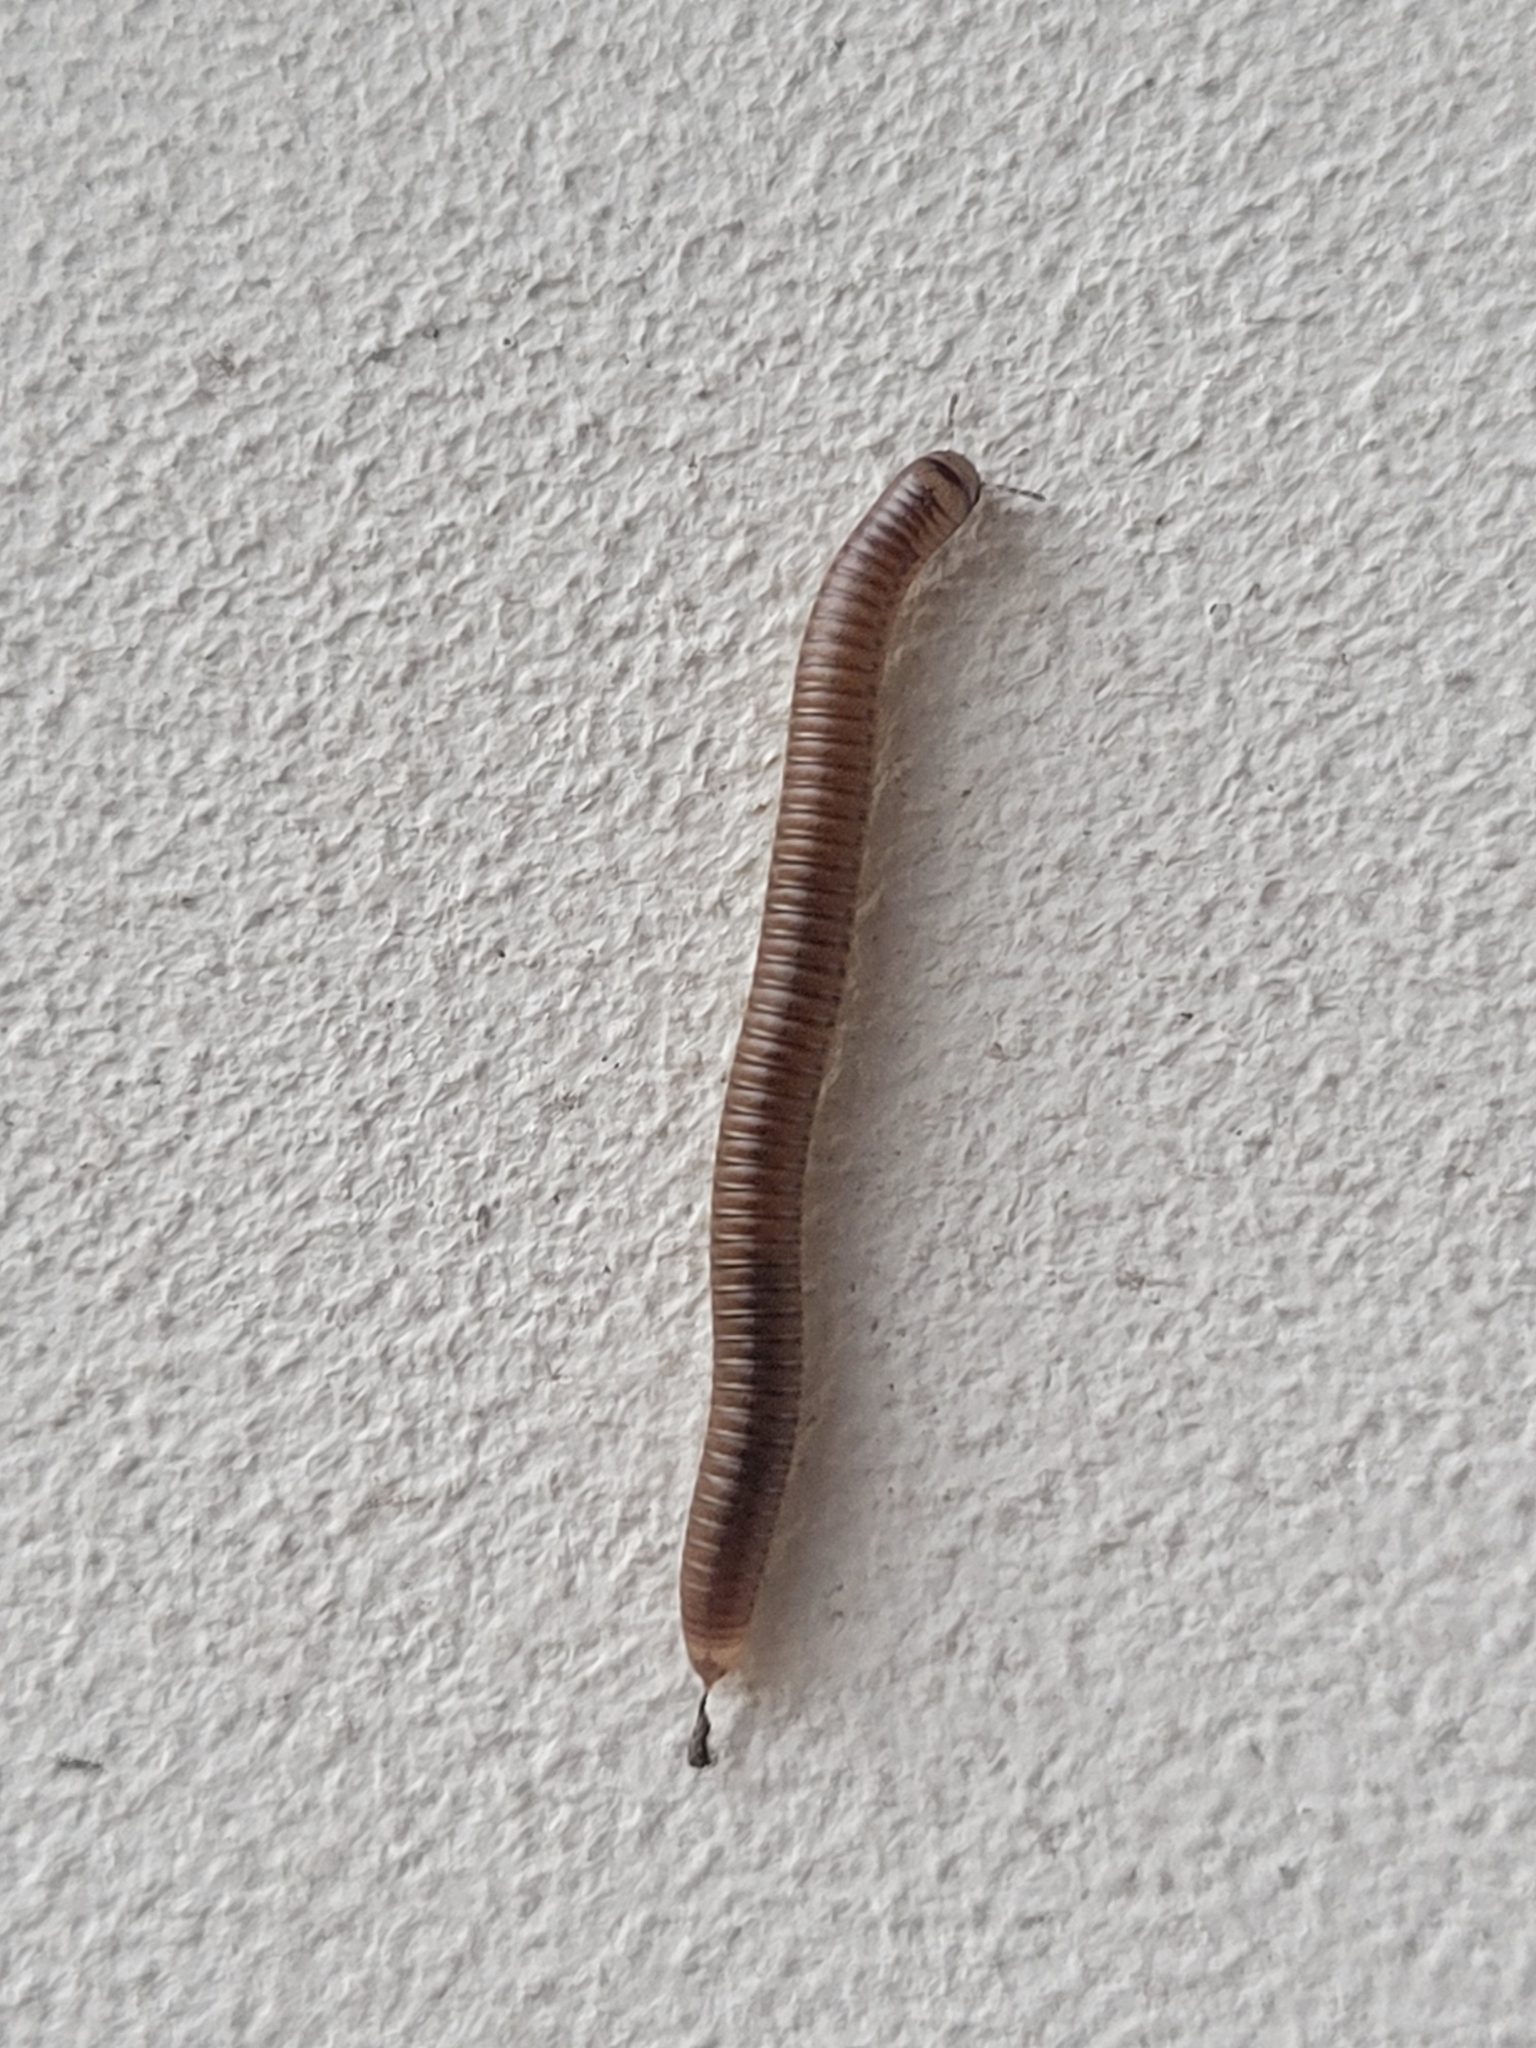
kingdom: Animalia
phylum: Arthropoda
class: Diplopoda
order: Julida
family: Julidae
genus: Cylindroiulus
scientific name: Cylindroiulus punctatus
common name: Blunt-tailed millipede
